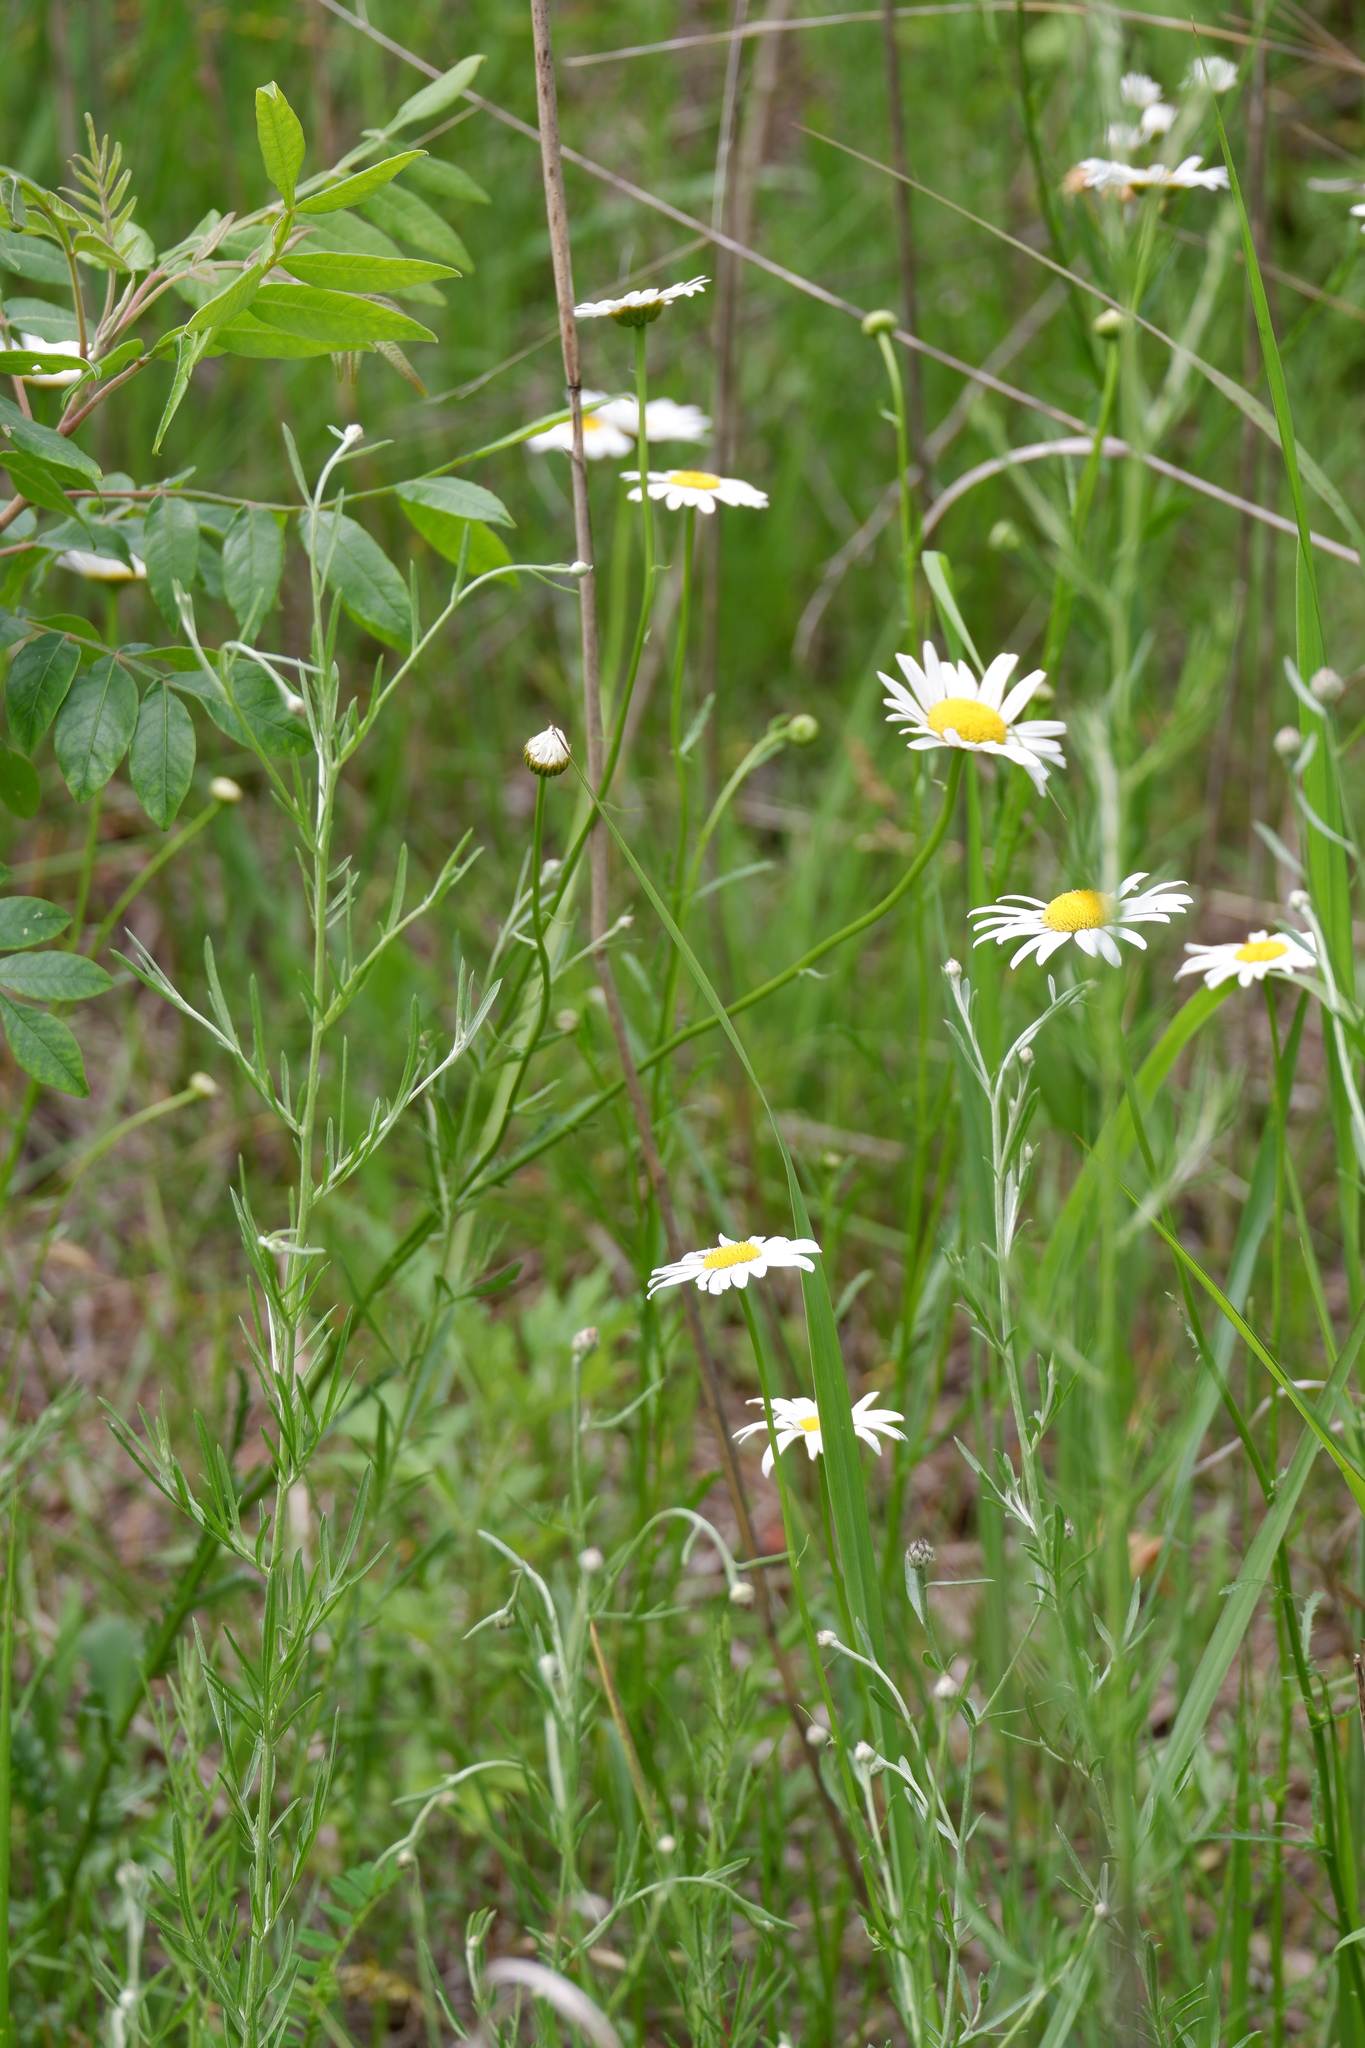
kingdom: Plantae
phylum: Tracheophyta
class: Magnoliopsida
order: Asterales
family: Asteraceae
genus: Leucanthemum
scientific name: Leucanthemum vulgare
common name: Oxeye daisy
